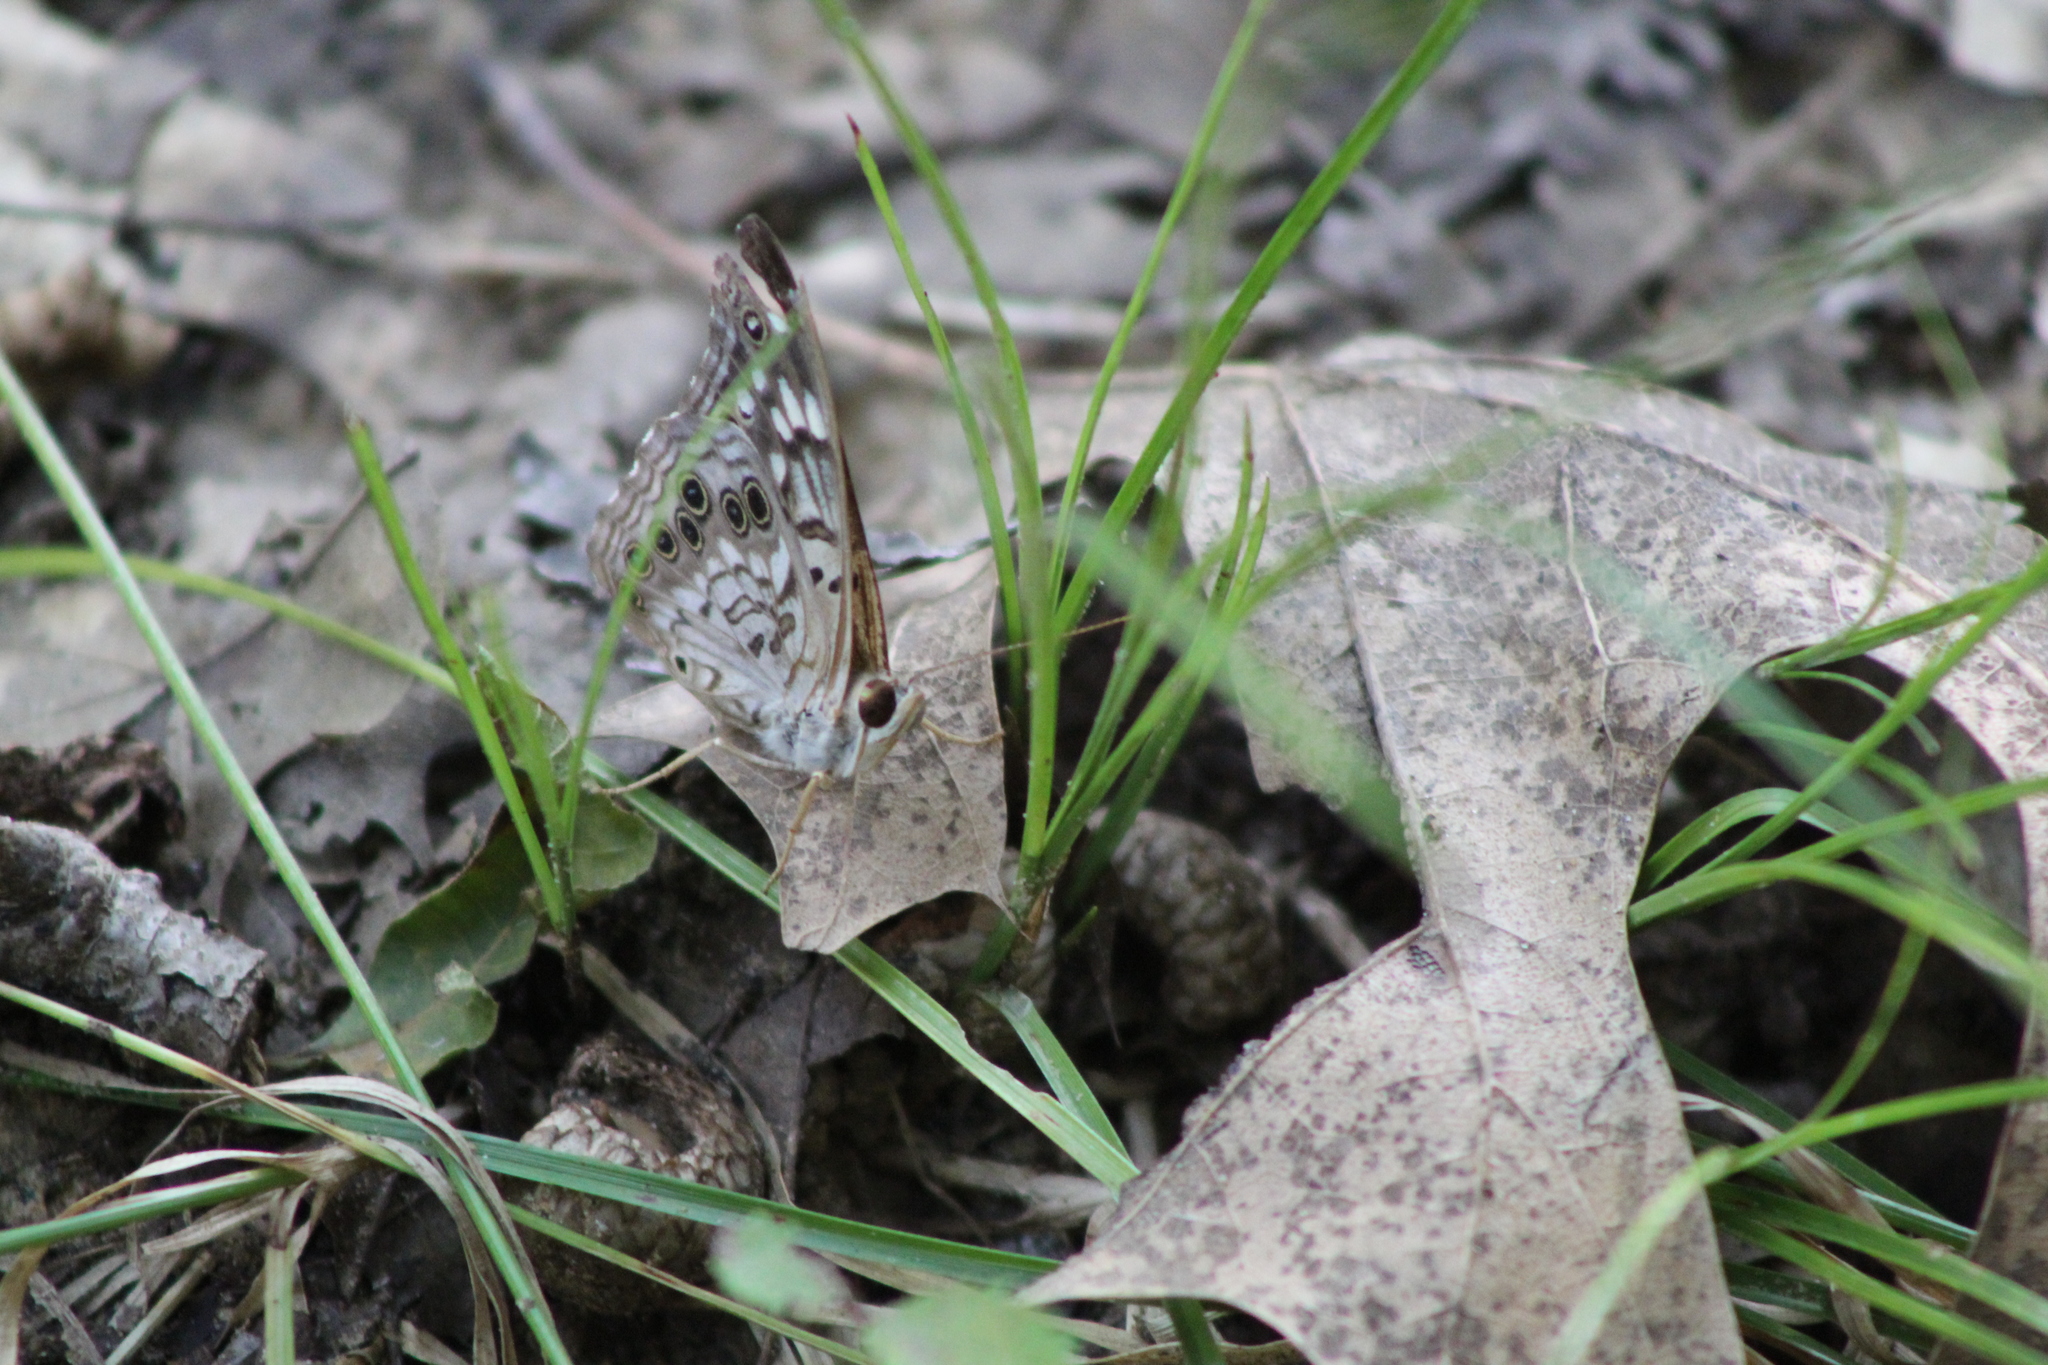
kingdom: Animalia
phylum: Arthropoda
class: Insecta
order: Lepidoptera
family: Nymphalidae
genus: Asterocampa
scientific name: Asterocampa celtis
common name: Hackberry emperor
